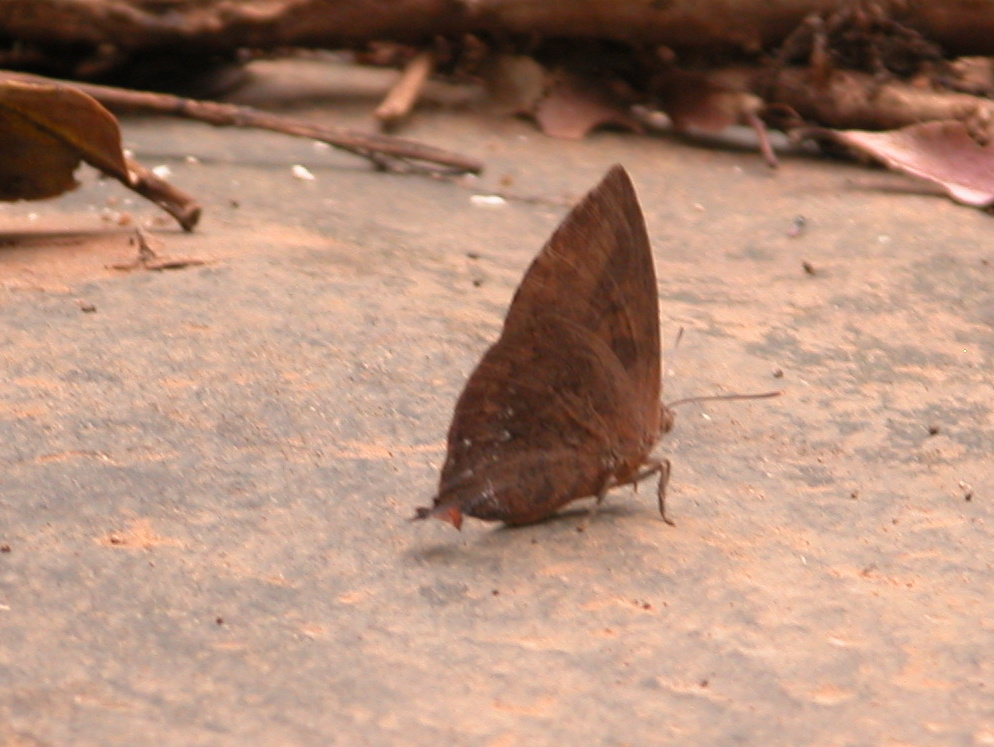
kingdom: Animalia
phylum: Arthropoda
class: Insecta
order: Lepidoptera
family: Lycaenidae
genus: Amblypodia
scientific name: Amblypodia anita
